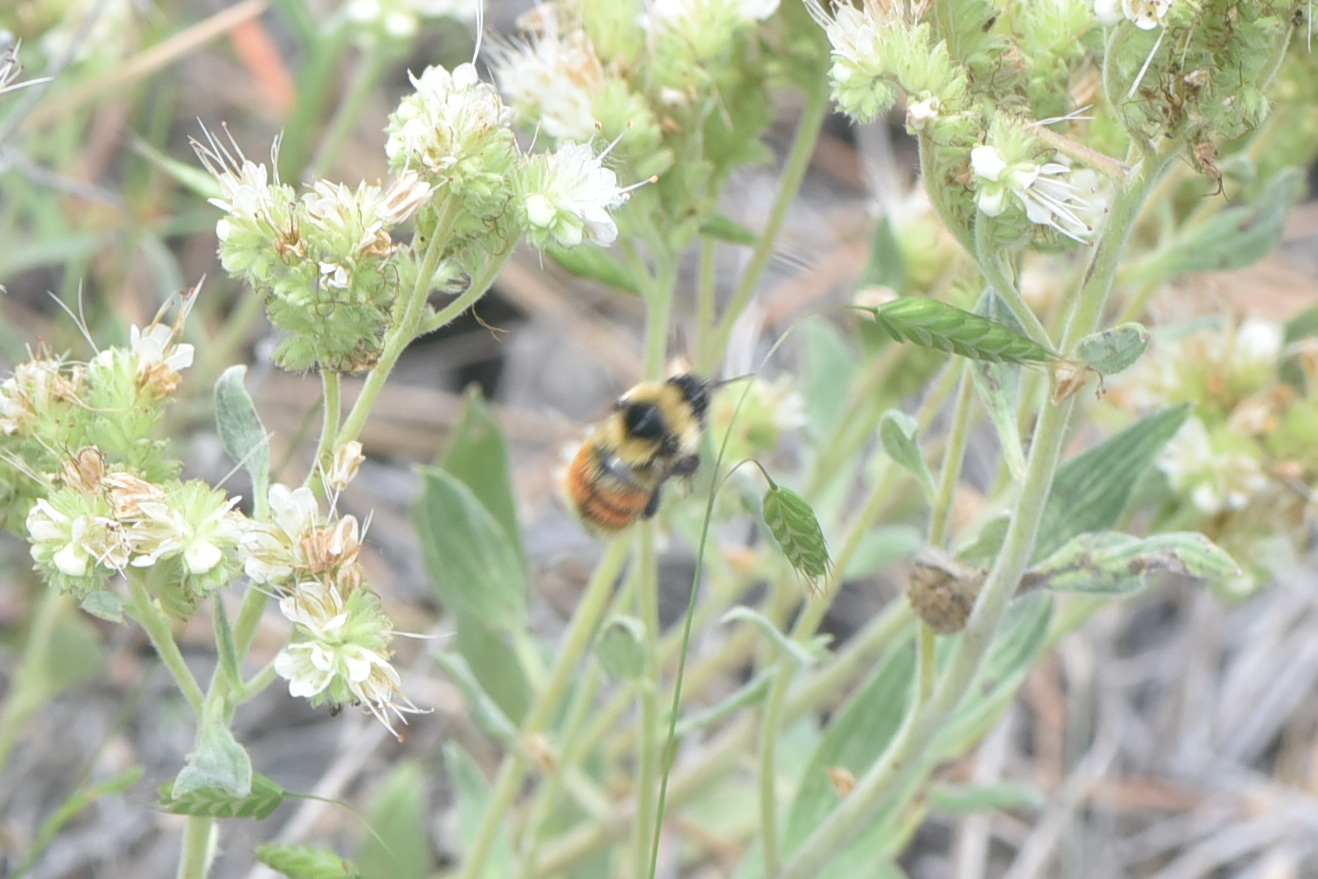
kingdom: Animalia
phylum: Arthropoda
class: Insecta
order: Hymenoptera
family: Apidae
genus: Bombus
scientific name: Bombus rufocinctus
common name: Red-belted bumble bee
